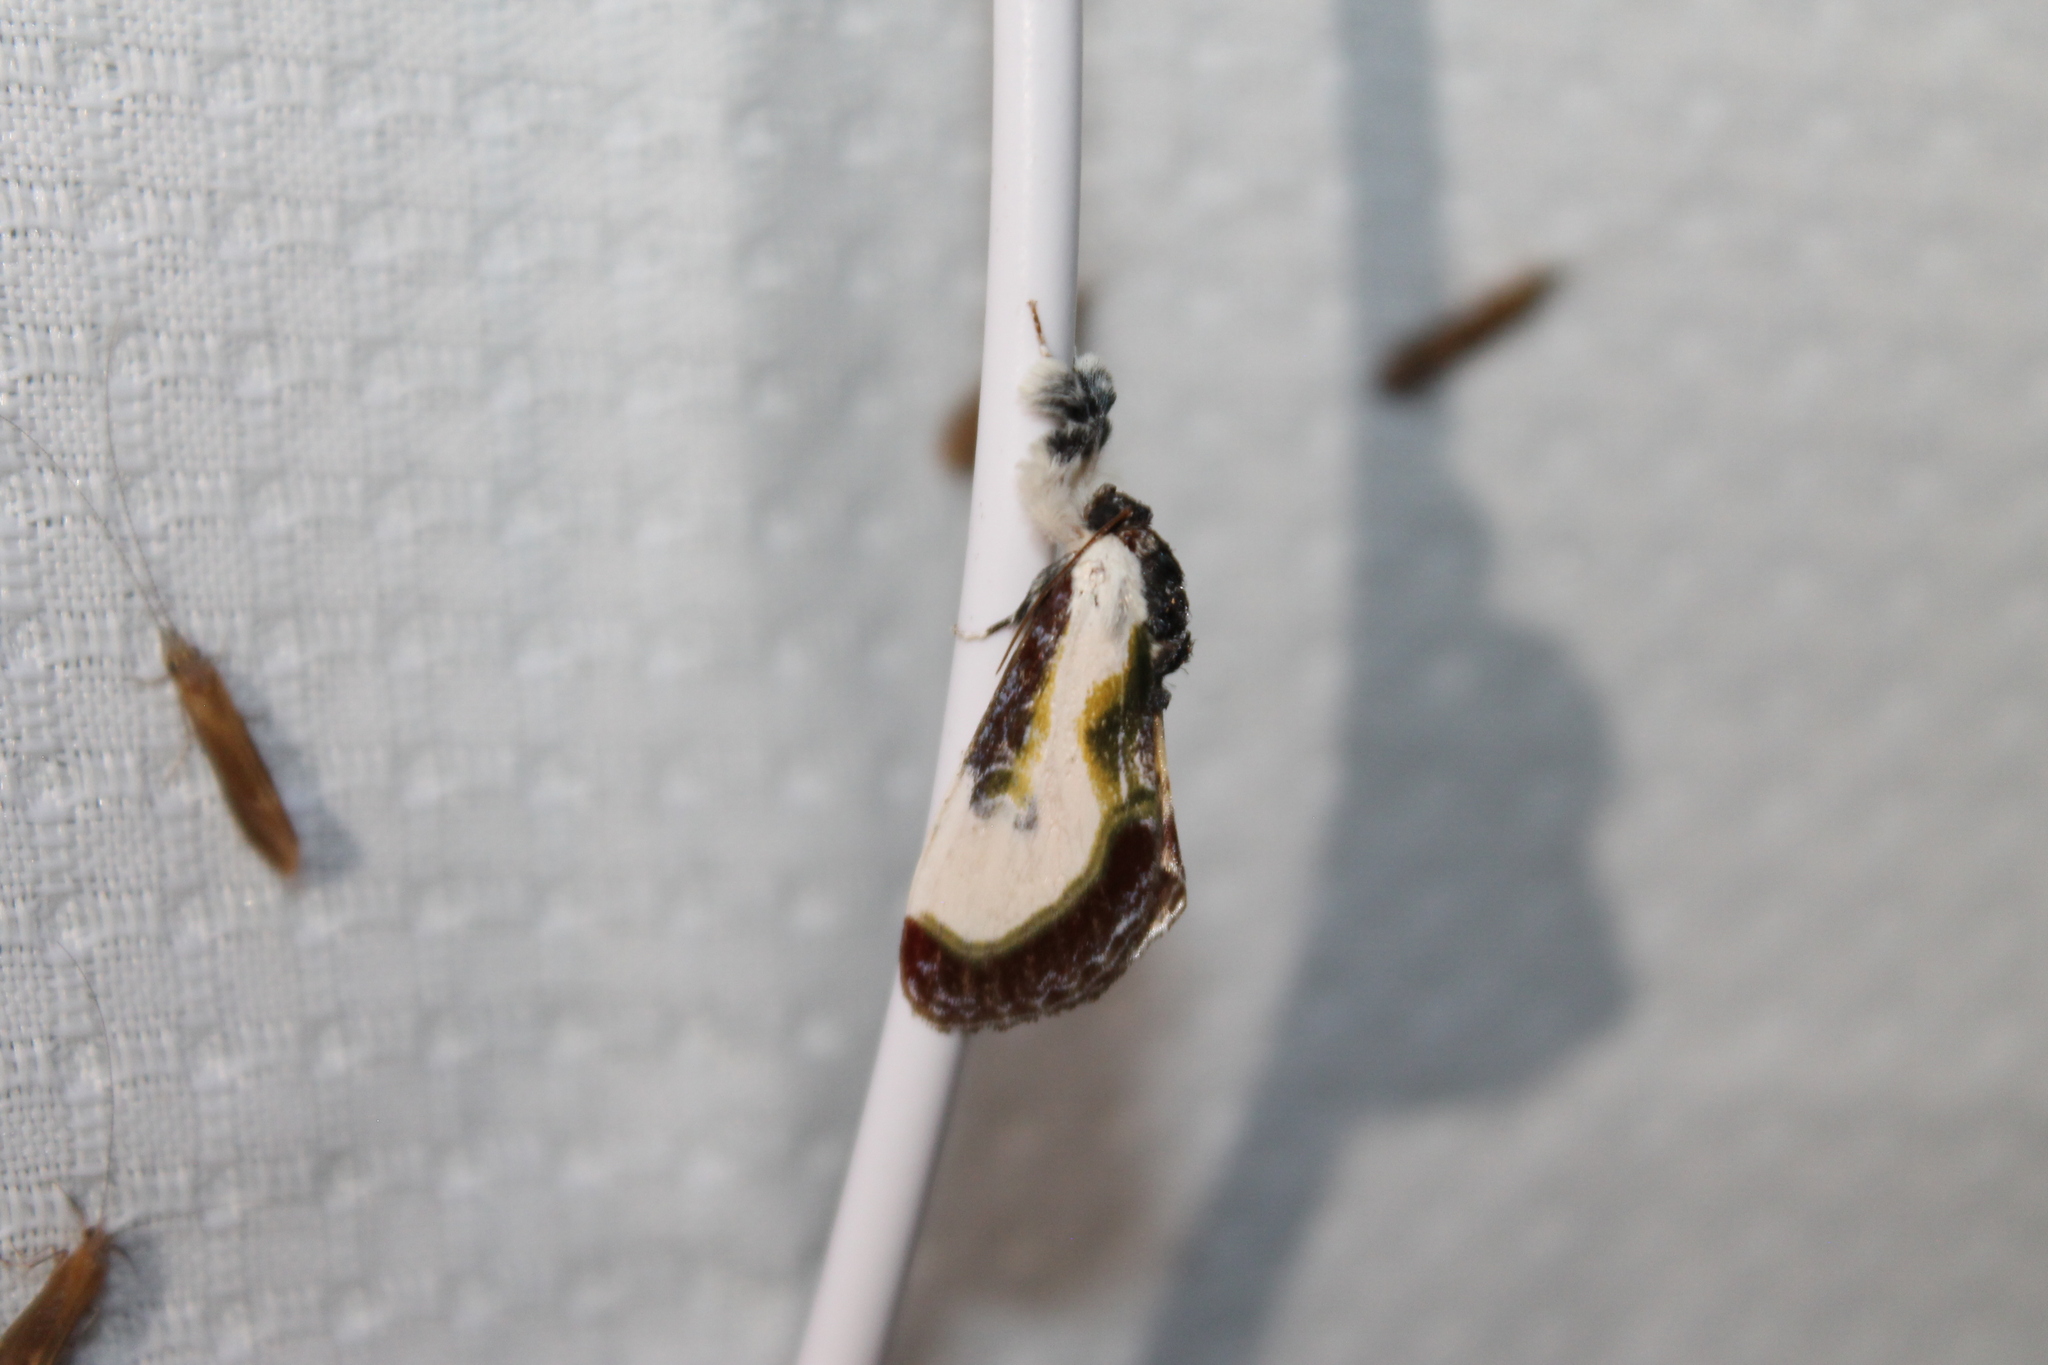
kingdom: Animalia
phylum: Arthropoda
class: Insecta
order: Lepidoptera
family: Noctuidae
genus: Eudryas
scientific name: Eudryas grata
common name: Beautiful wood-nymph
